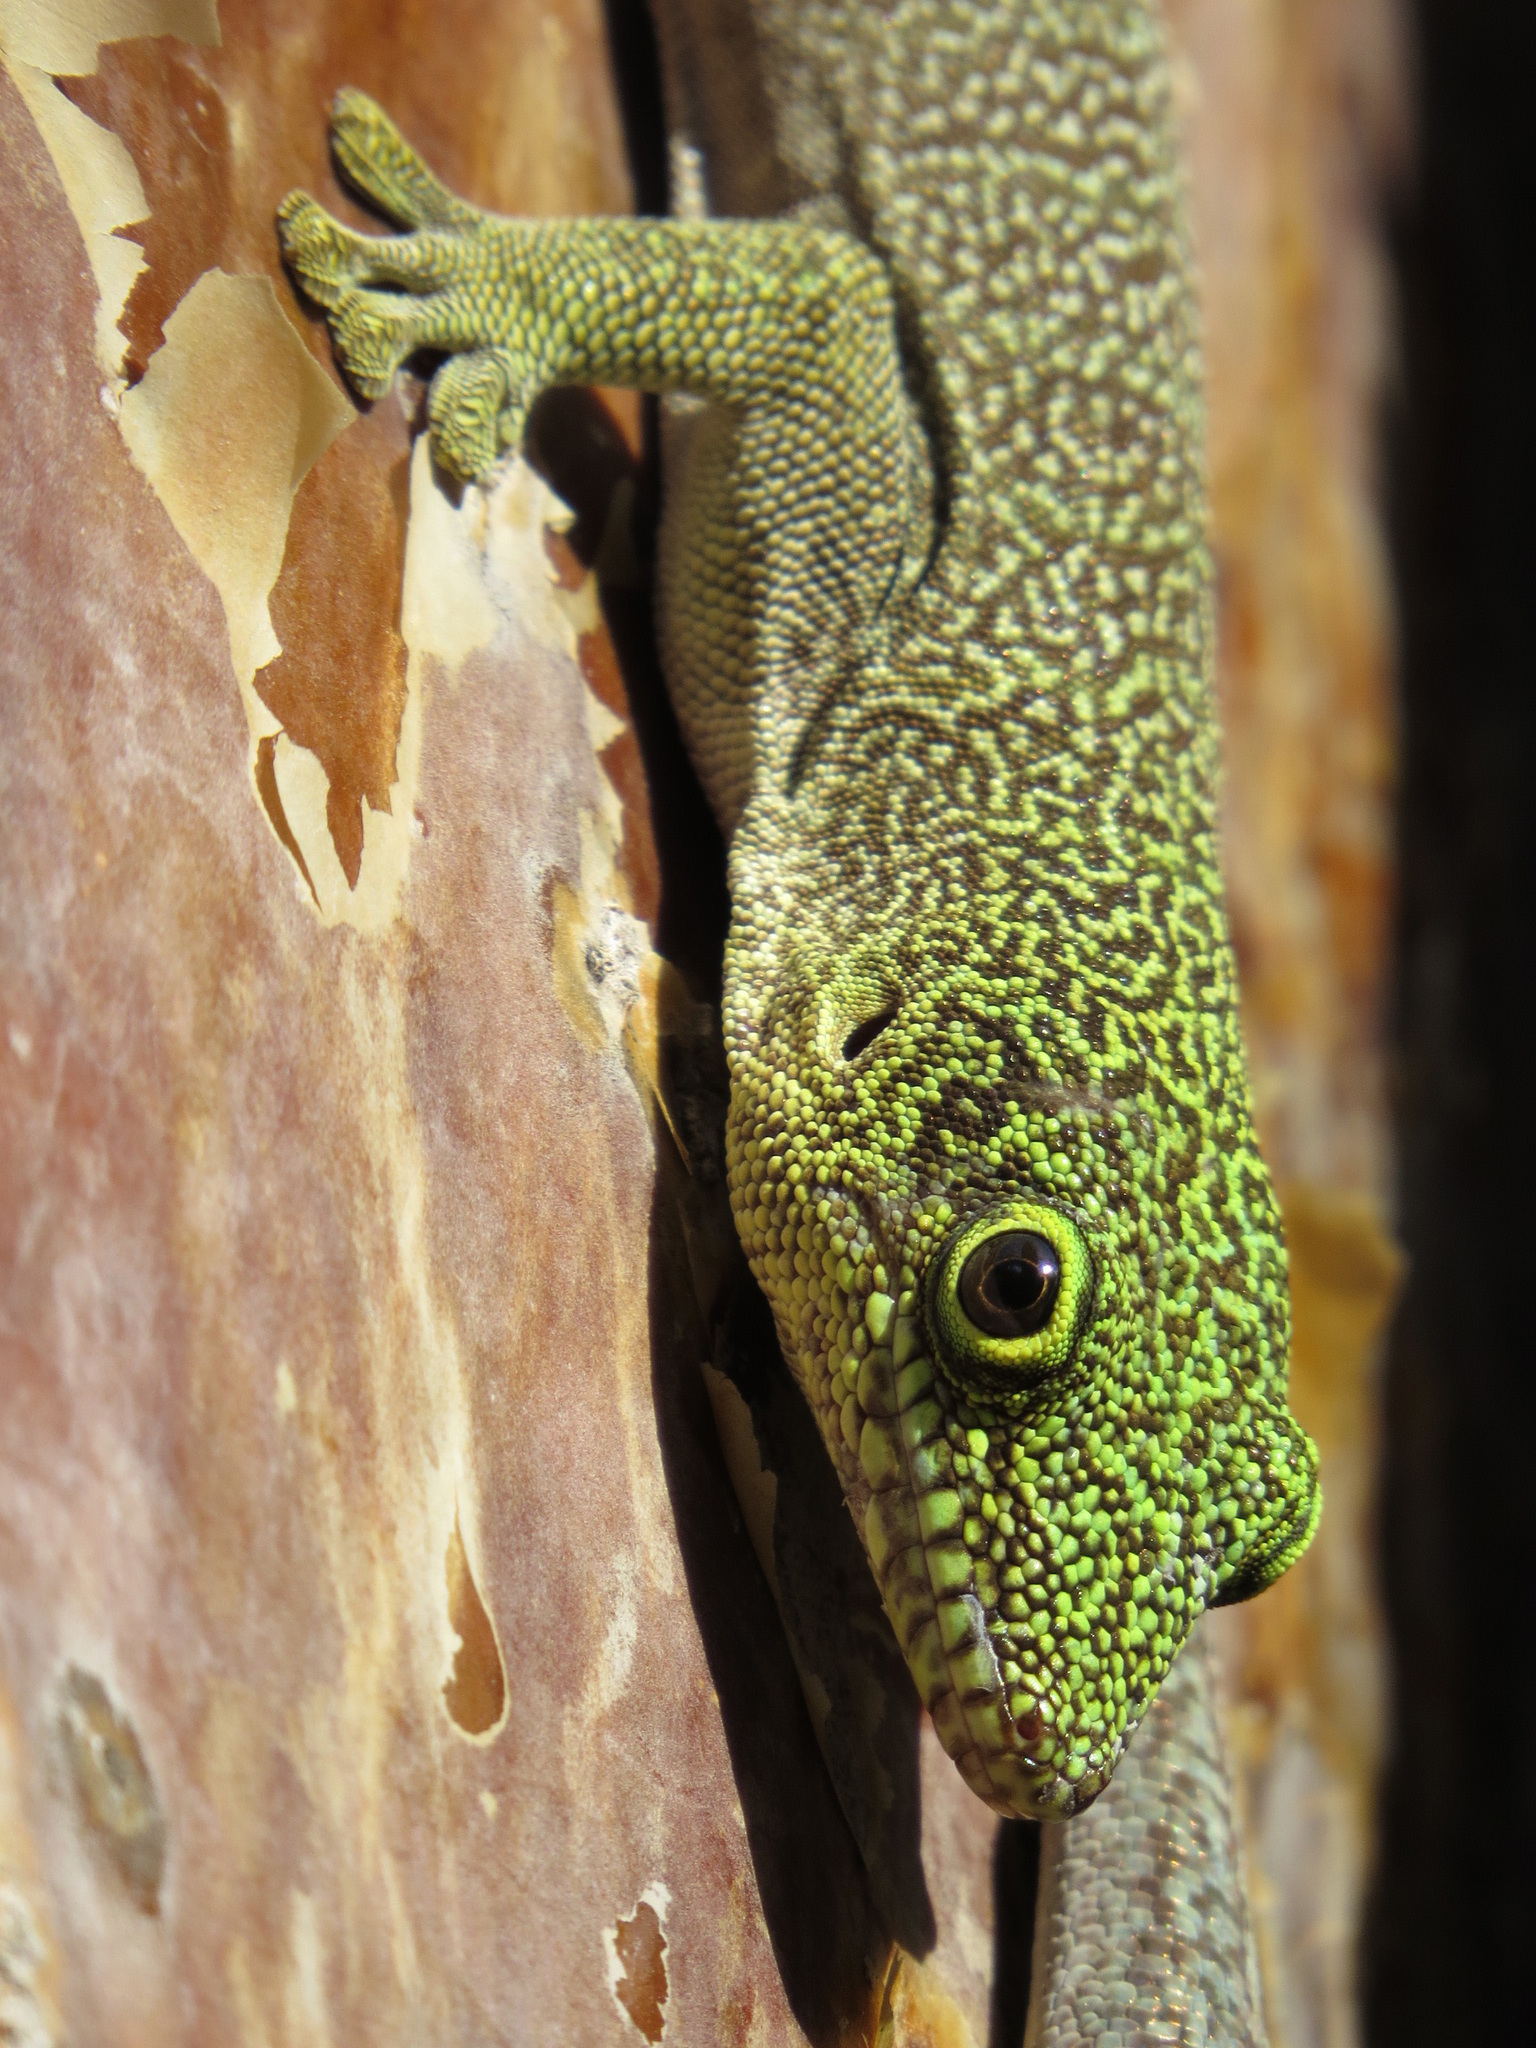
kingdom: Animalia
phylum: Chordata
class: Squamata
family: Gekkonidae
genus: Phelsuma
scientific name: Phelsuma standingi
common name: Standing's day gecko
